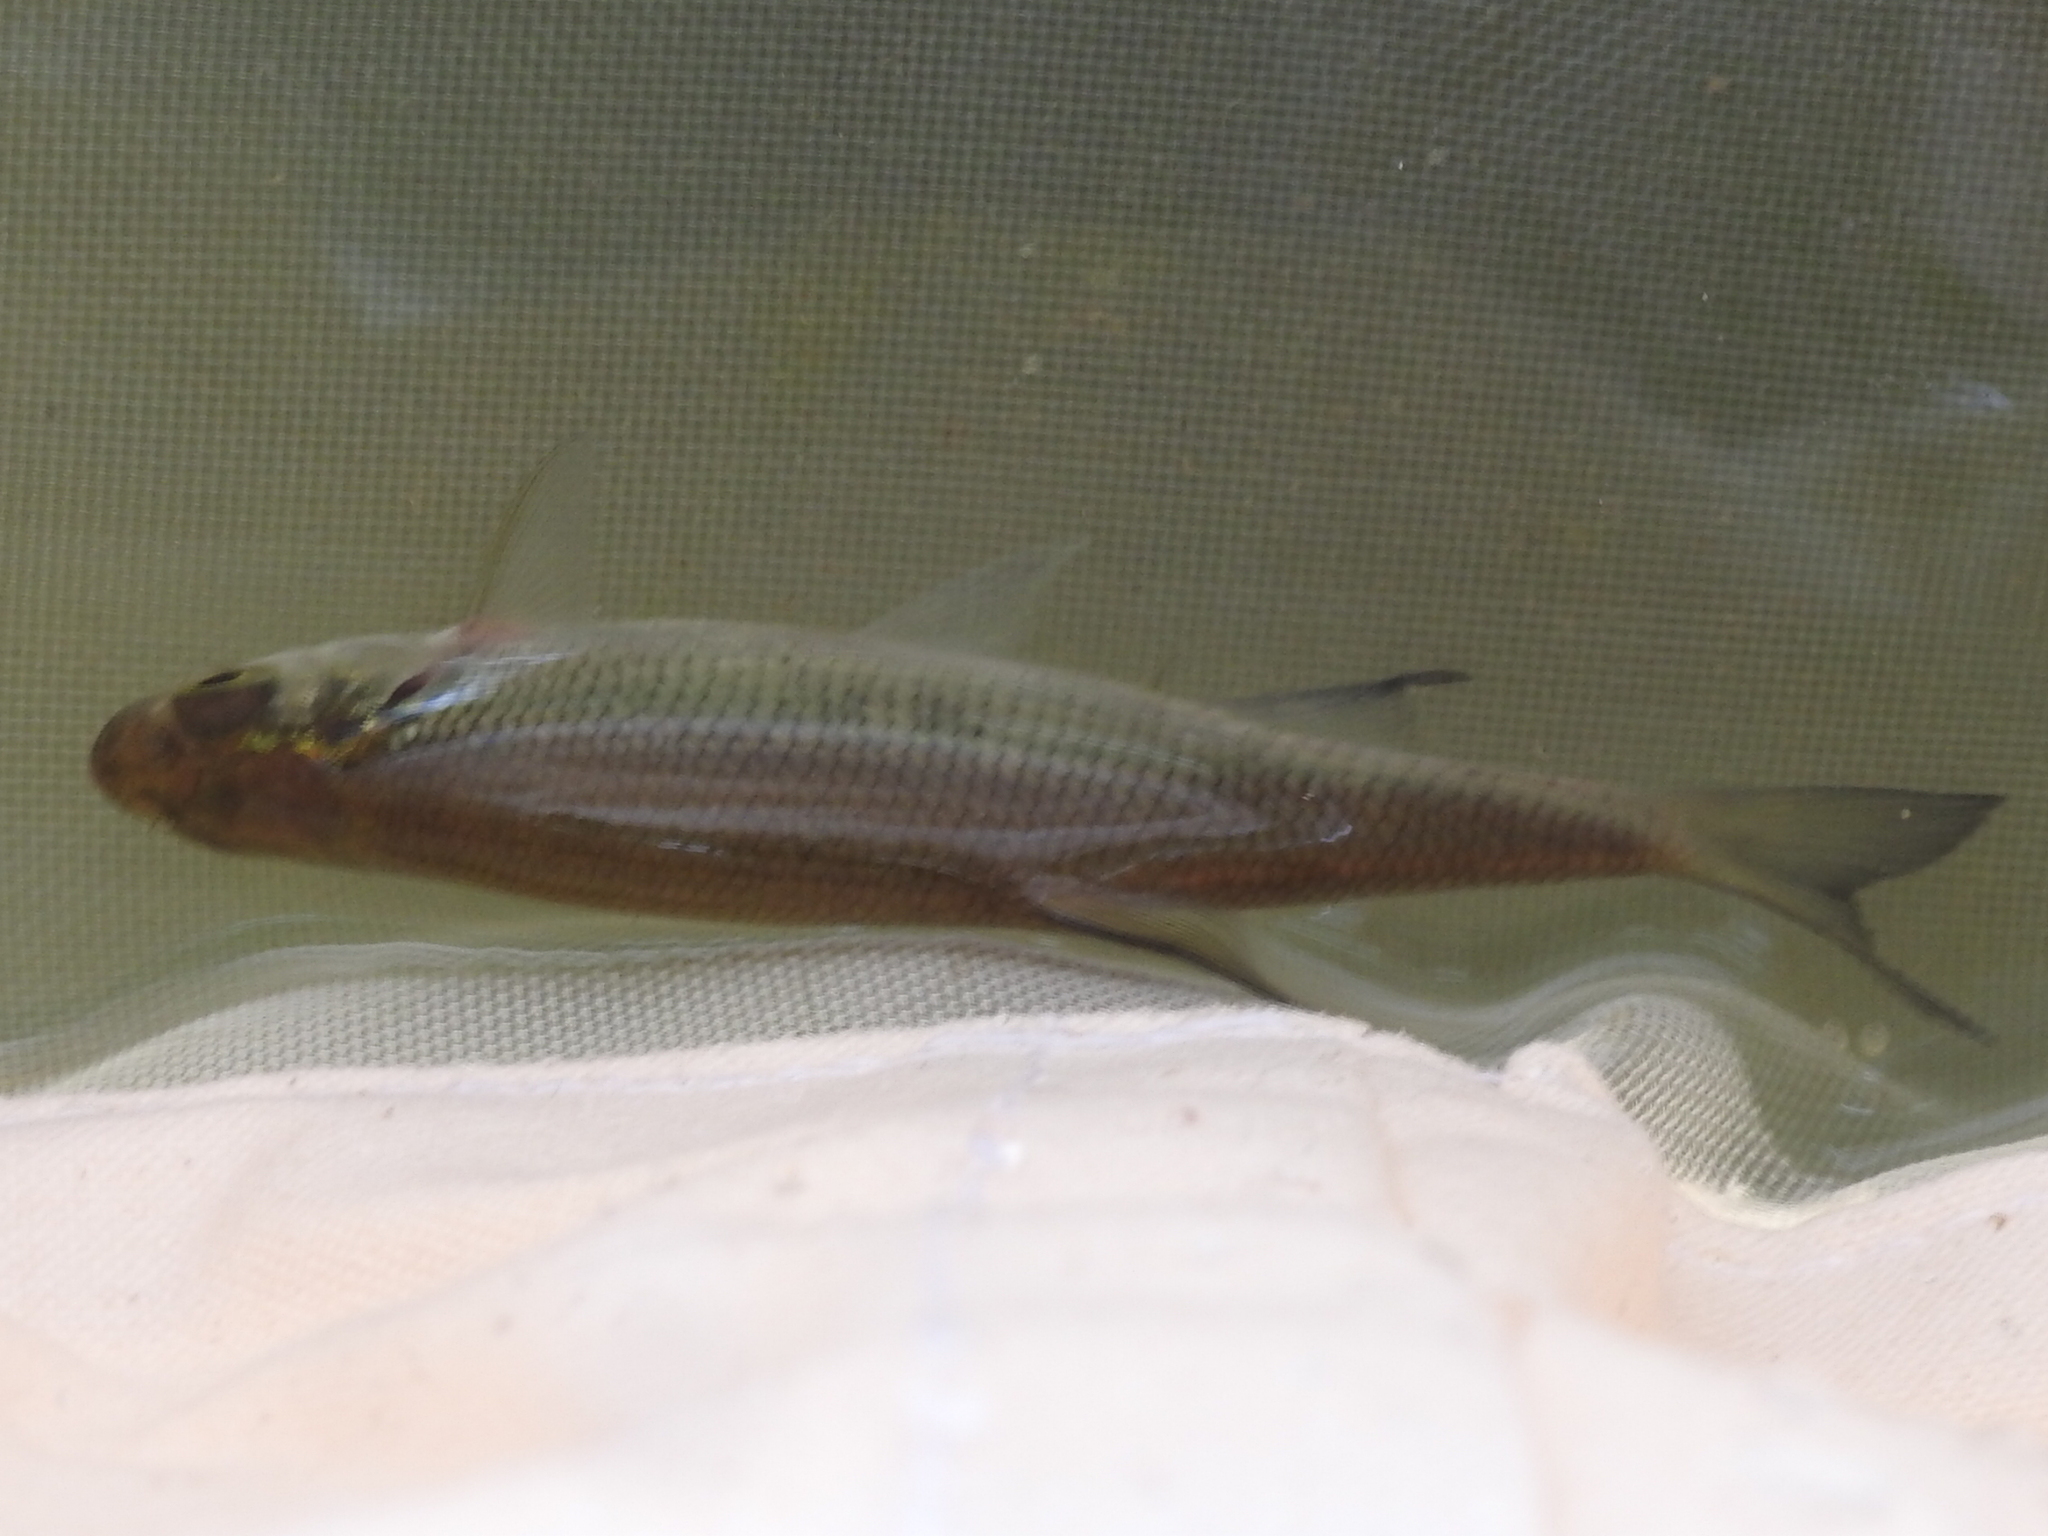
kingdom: Animalia
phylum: Chordata
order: Cypriniformes
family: Cyprinidae
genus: Notemigonus
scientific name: Notemigonus crysoleucas
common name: Golden shiner
